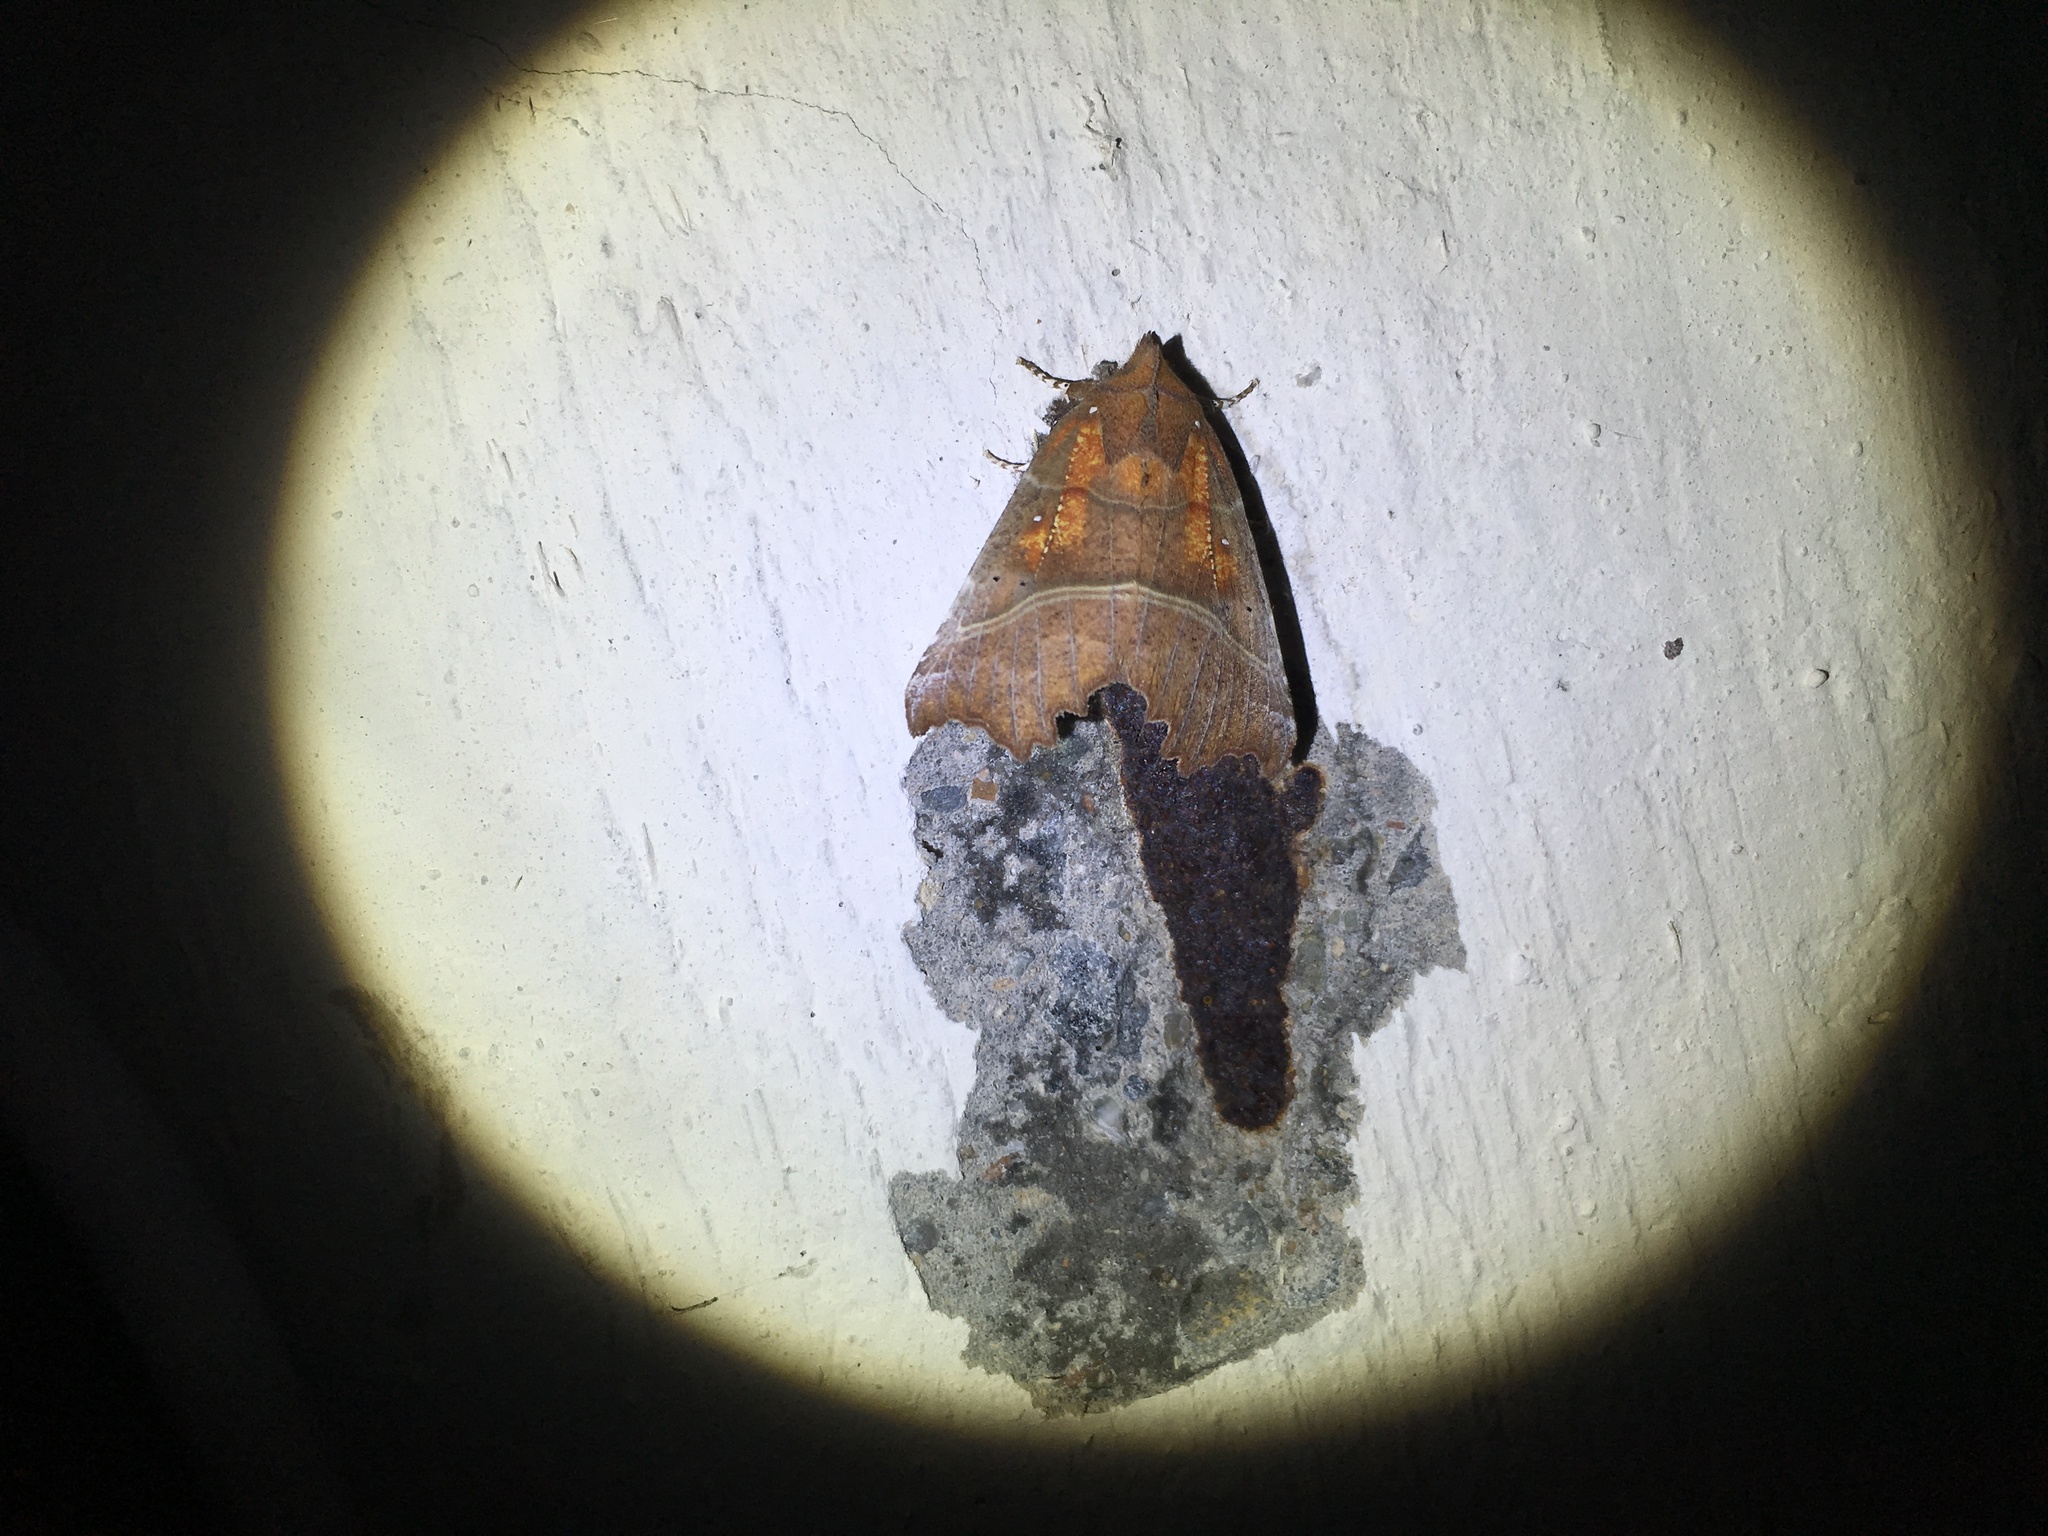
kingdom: Animalia
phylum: Arthropoda
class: Insecta
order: Lepidoptera
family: Erebidae
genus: Scoliopteryx
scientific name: Scoliopteryx libatrix
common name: Herald
